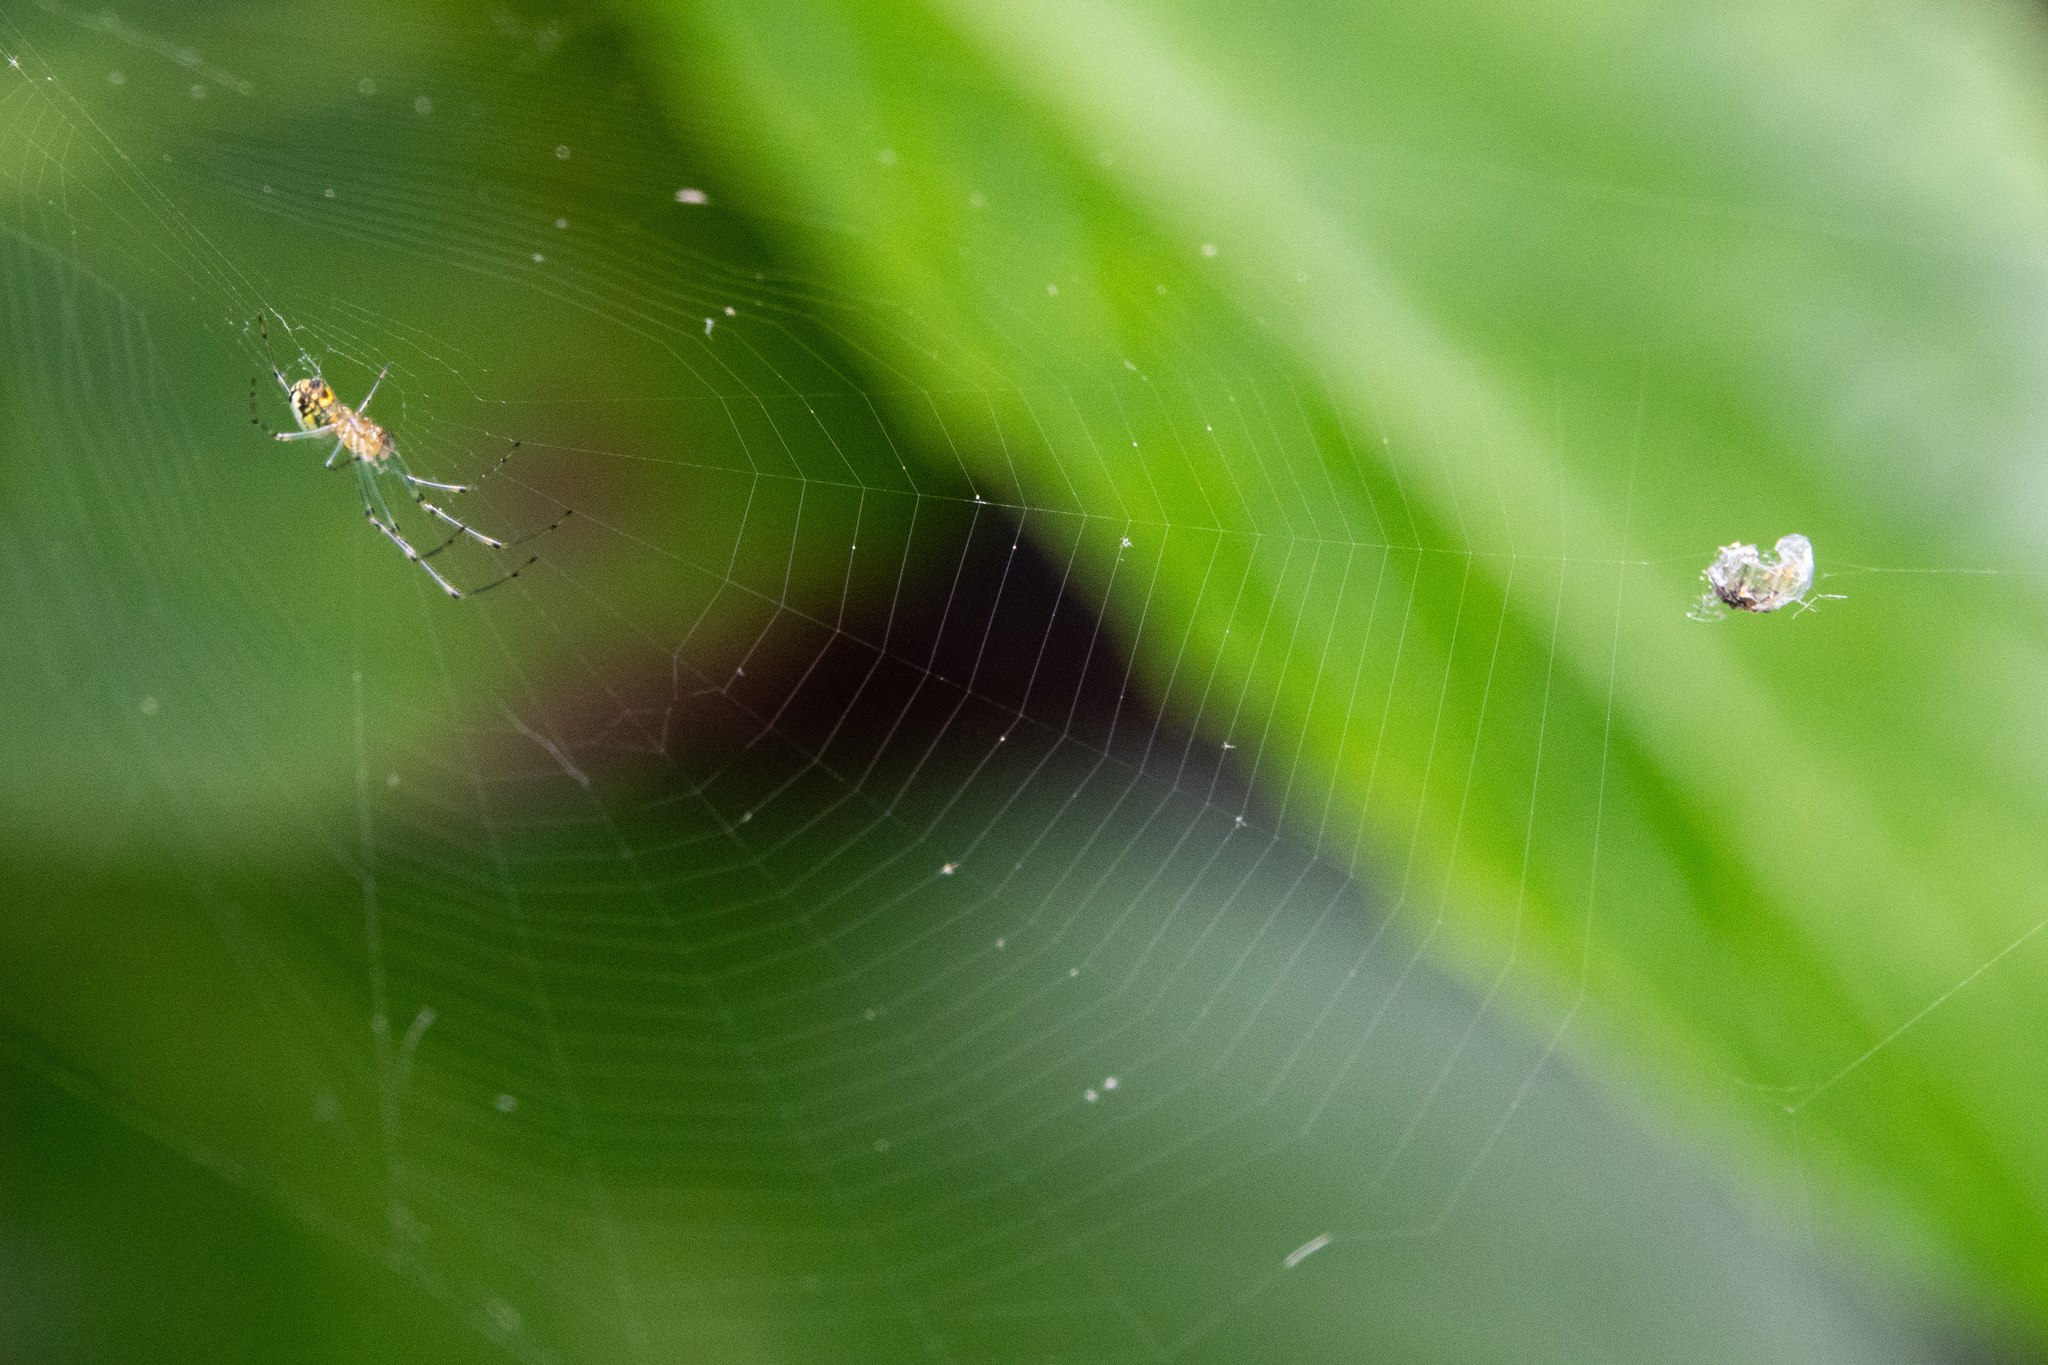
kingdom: Animalia
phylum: Arthropoda
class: Arachnida
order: Araneae
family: Tetragnathidae
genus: Leucauge
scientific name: Leucauge venusta
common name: Longjawed orb weavers
